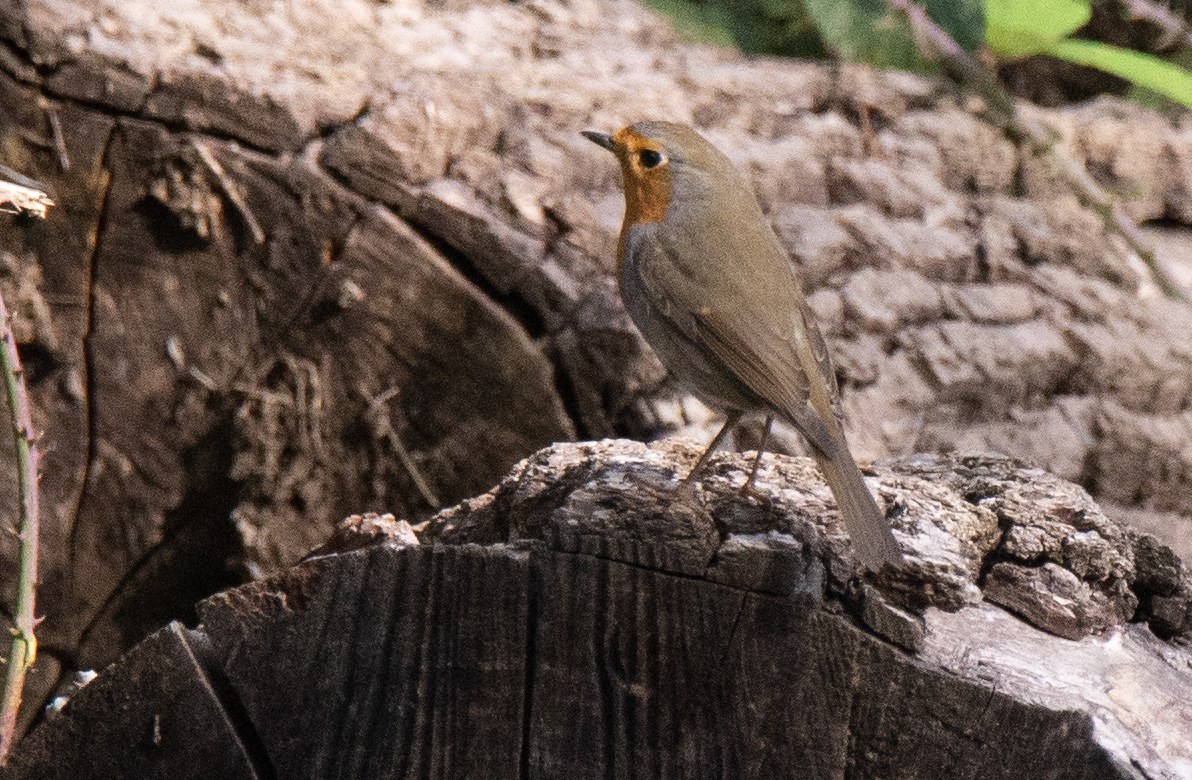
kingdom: Animalia
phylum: Chordata
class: Aves
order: Passeriformes
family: Muscicapidae
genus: Erithacus
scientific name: Erithacus rubecula
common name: European robin
